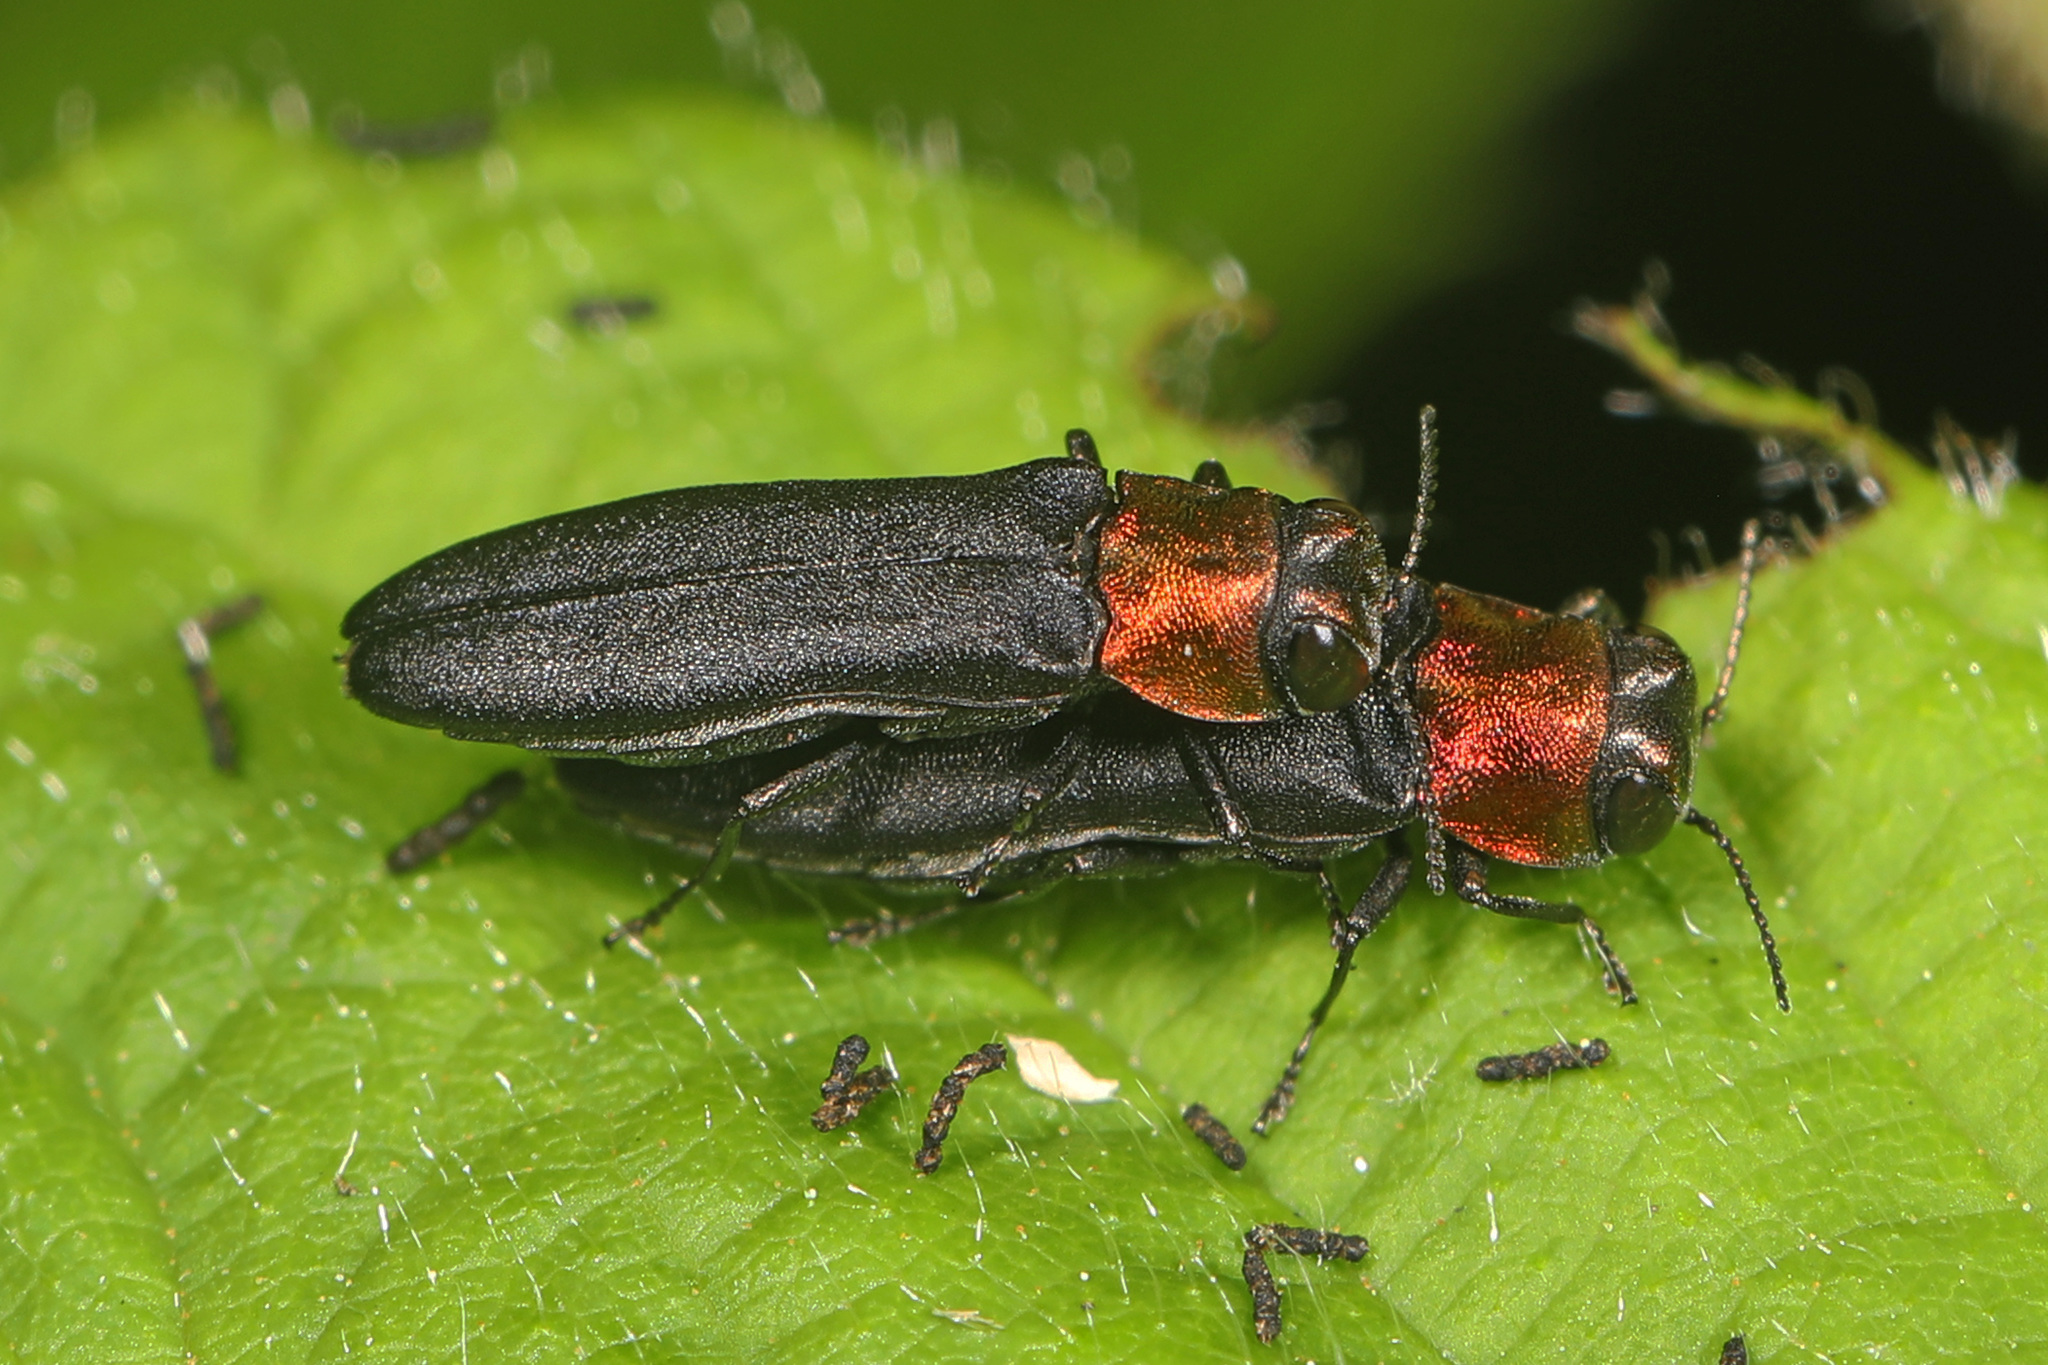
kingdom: Animalia
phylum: Arthropoda
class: Insecta
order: Coleoptera
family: Buprestidae
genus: Agrilus
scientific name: Agrilus ruficollis
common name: Red-necked cane borer beetle
